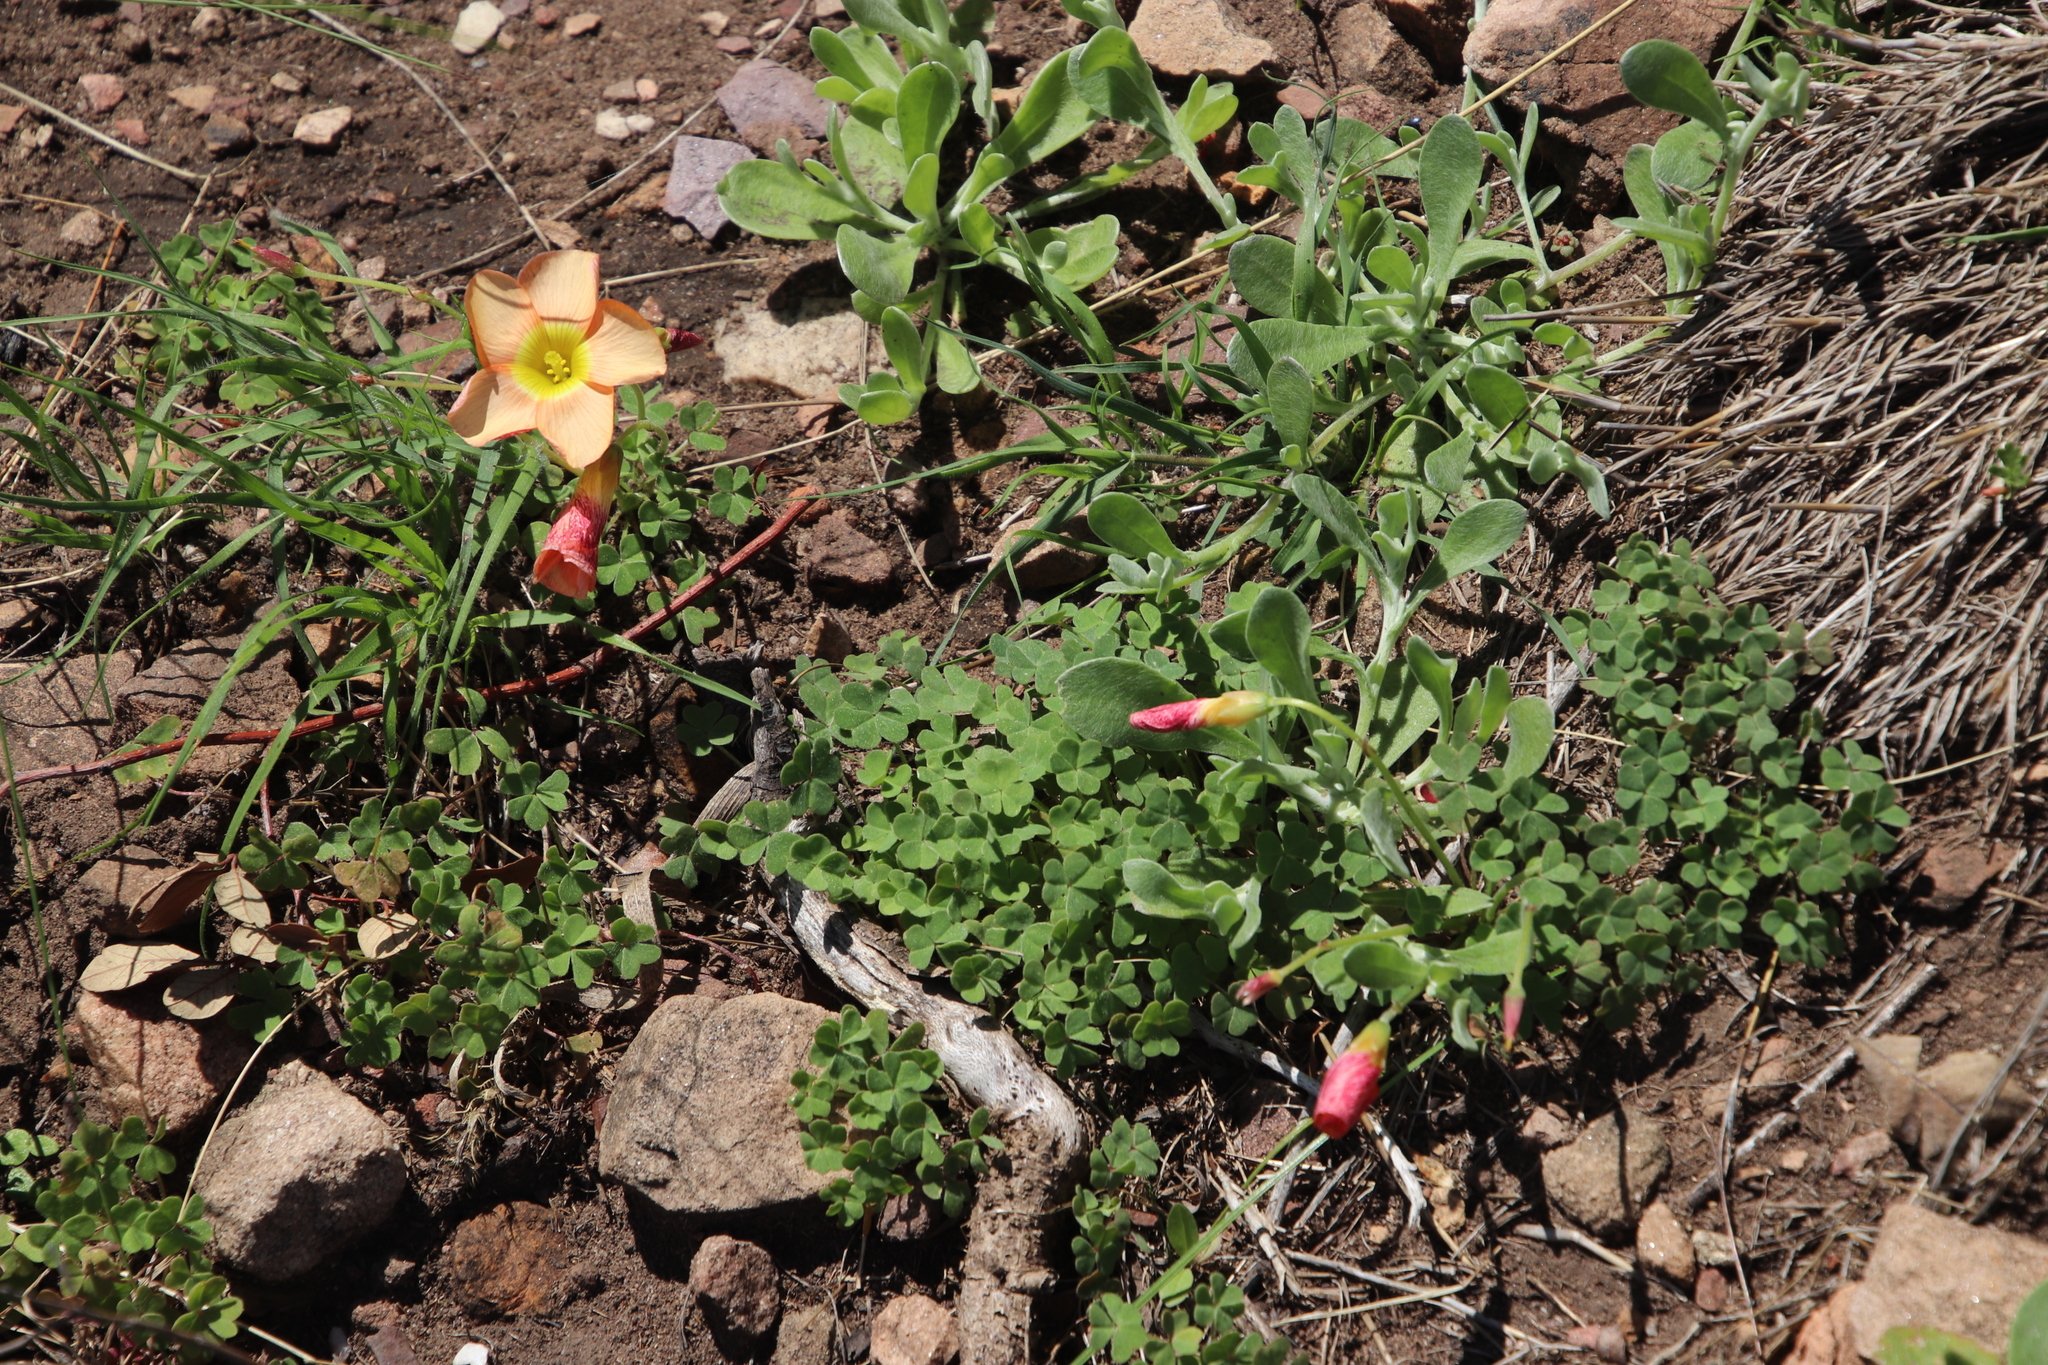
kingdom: Plantae
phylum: Tracheophyta
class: Magnoliopsida
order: Oxalidales
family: Oxalidaceae
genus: Oxalis
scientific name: Oxalis obtusa
